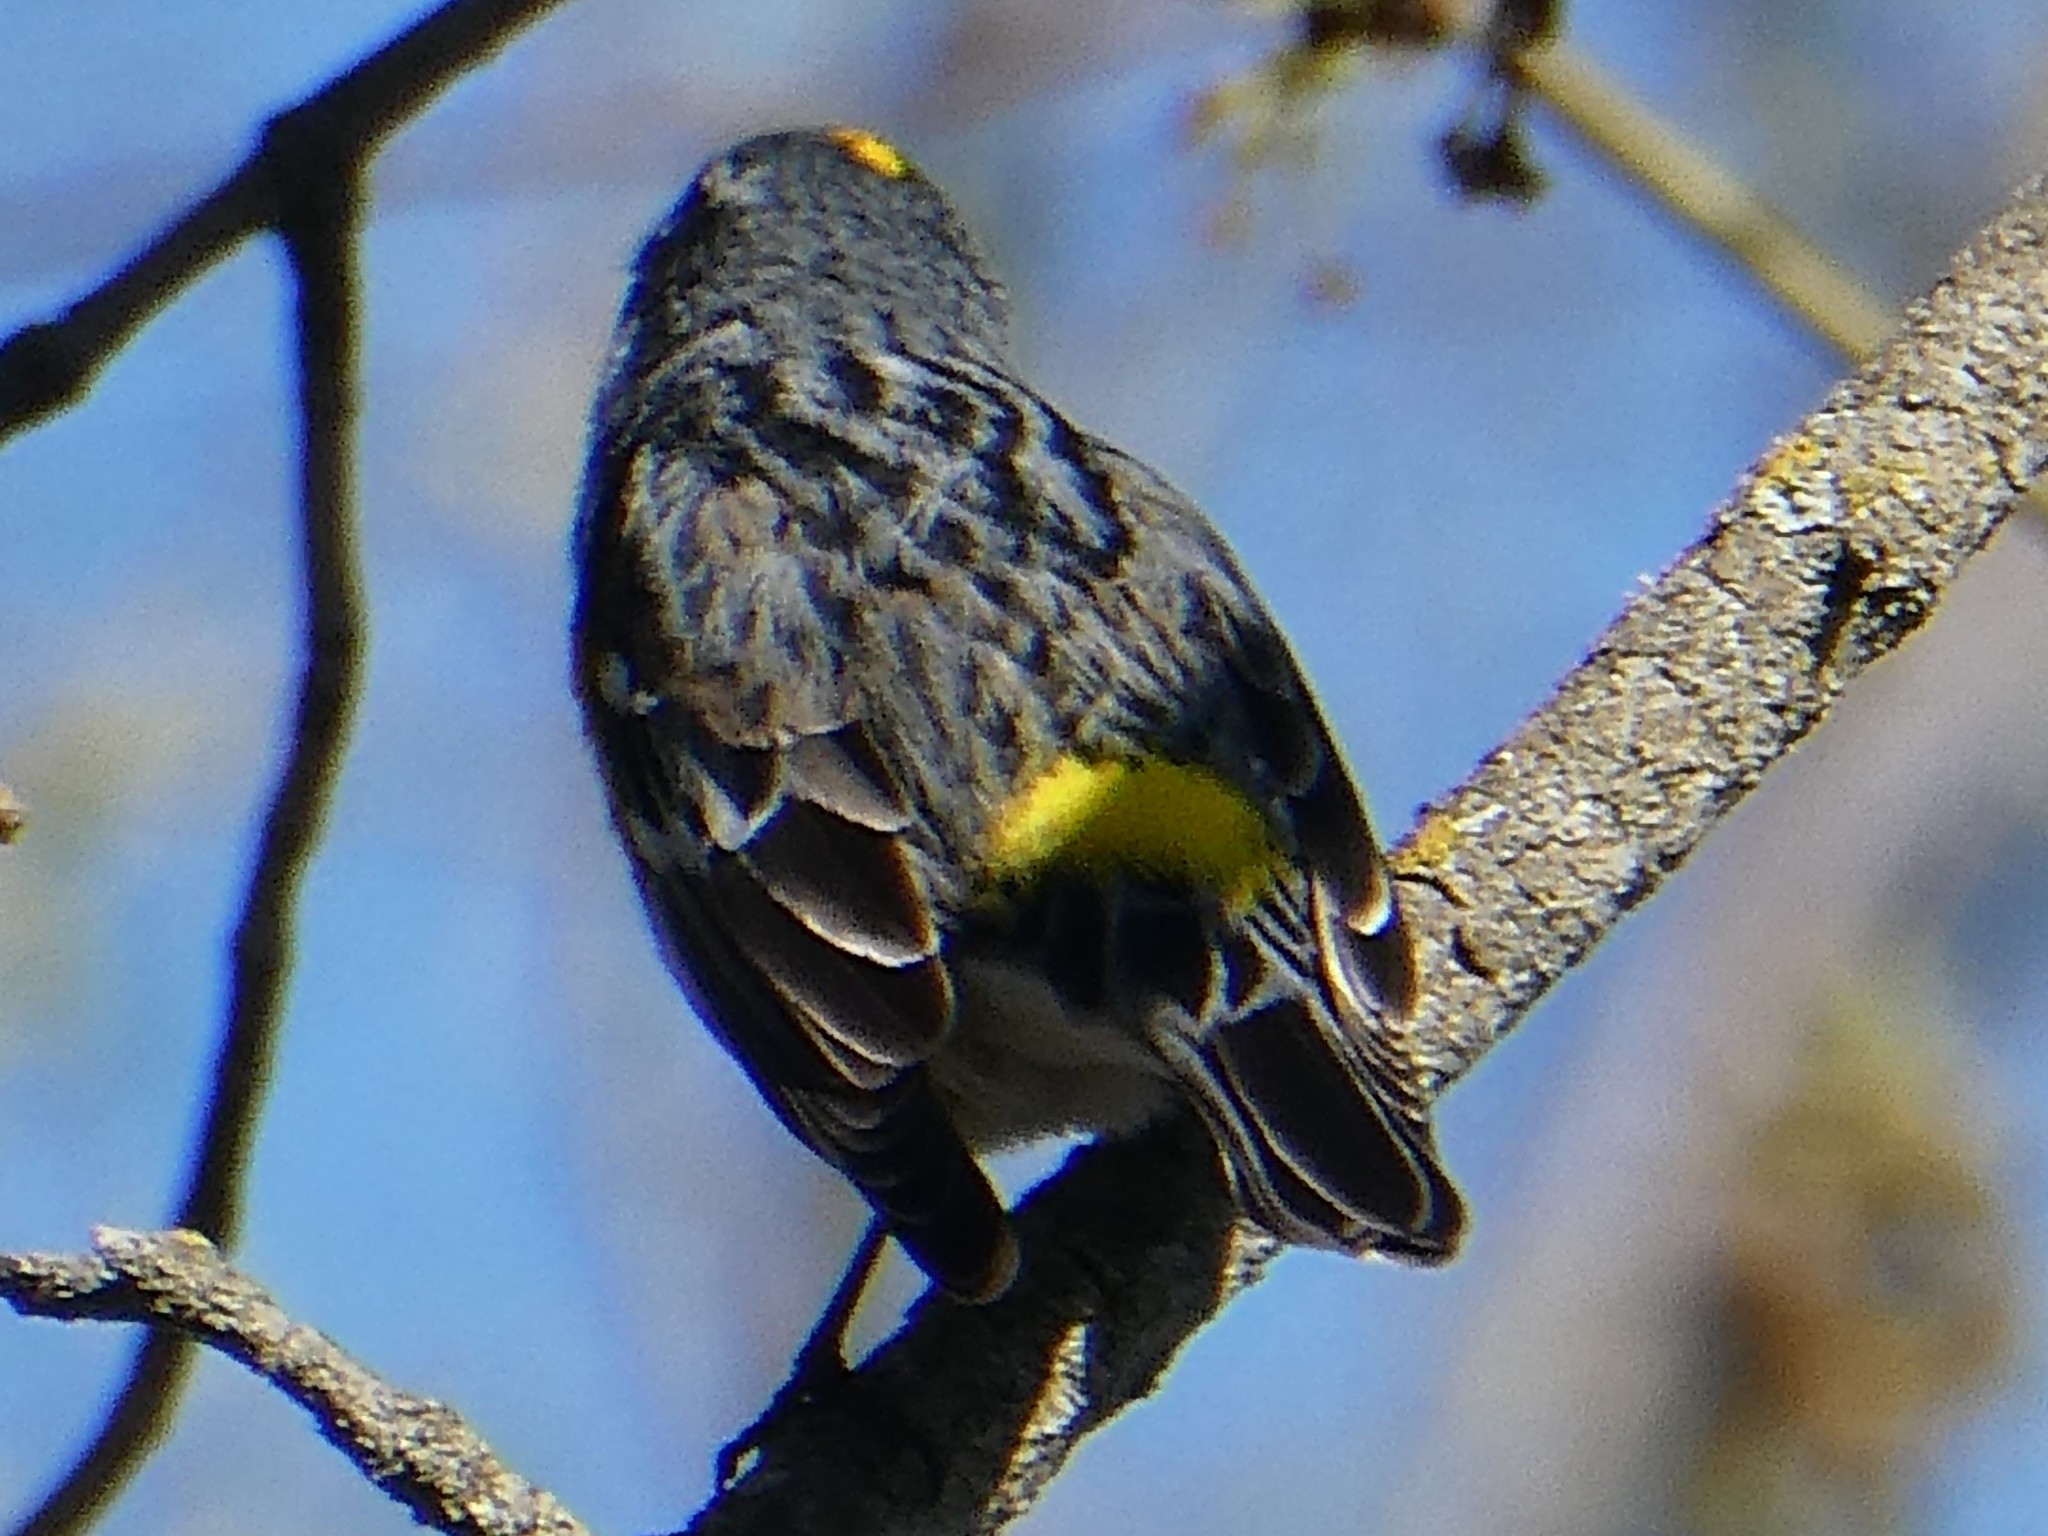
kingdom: Animalia
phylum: Chordata
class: Aves
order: Passeriformes
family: Parulidae
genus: Setophaga
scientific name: Setophaga coronata
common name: Myrtle warbler
